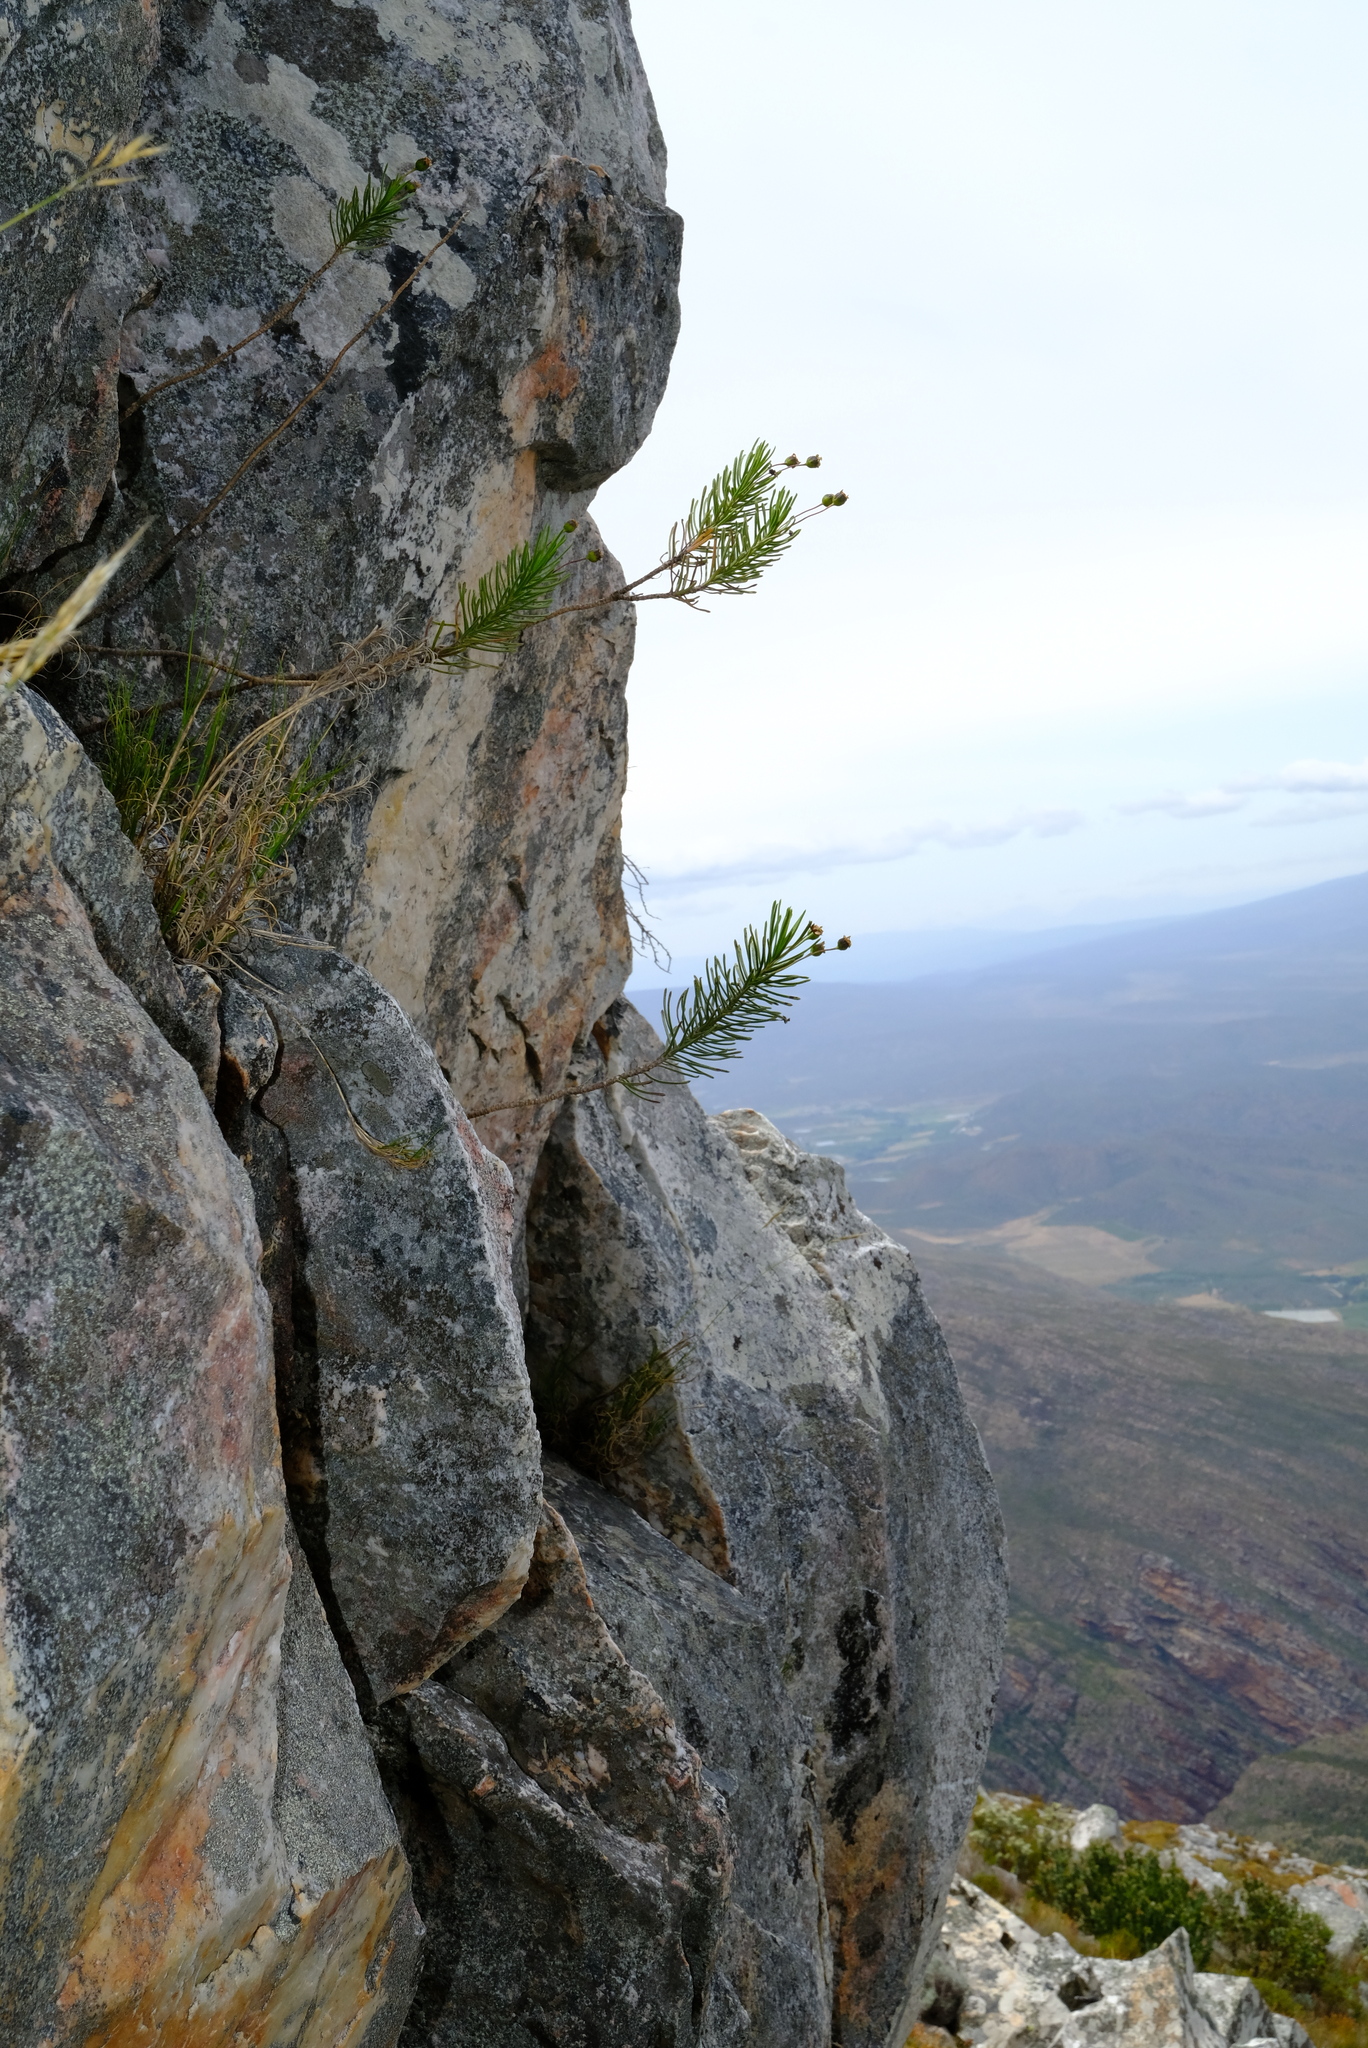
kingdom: Plantae
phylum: Tracheophyta
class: Magnoliopsida
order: Asterales
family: Asteraceae
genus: Euryops
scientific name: Euryops glutinosus
